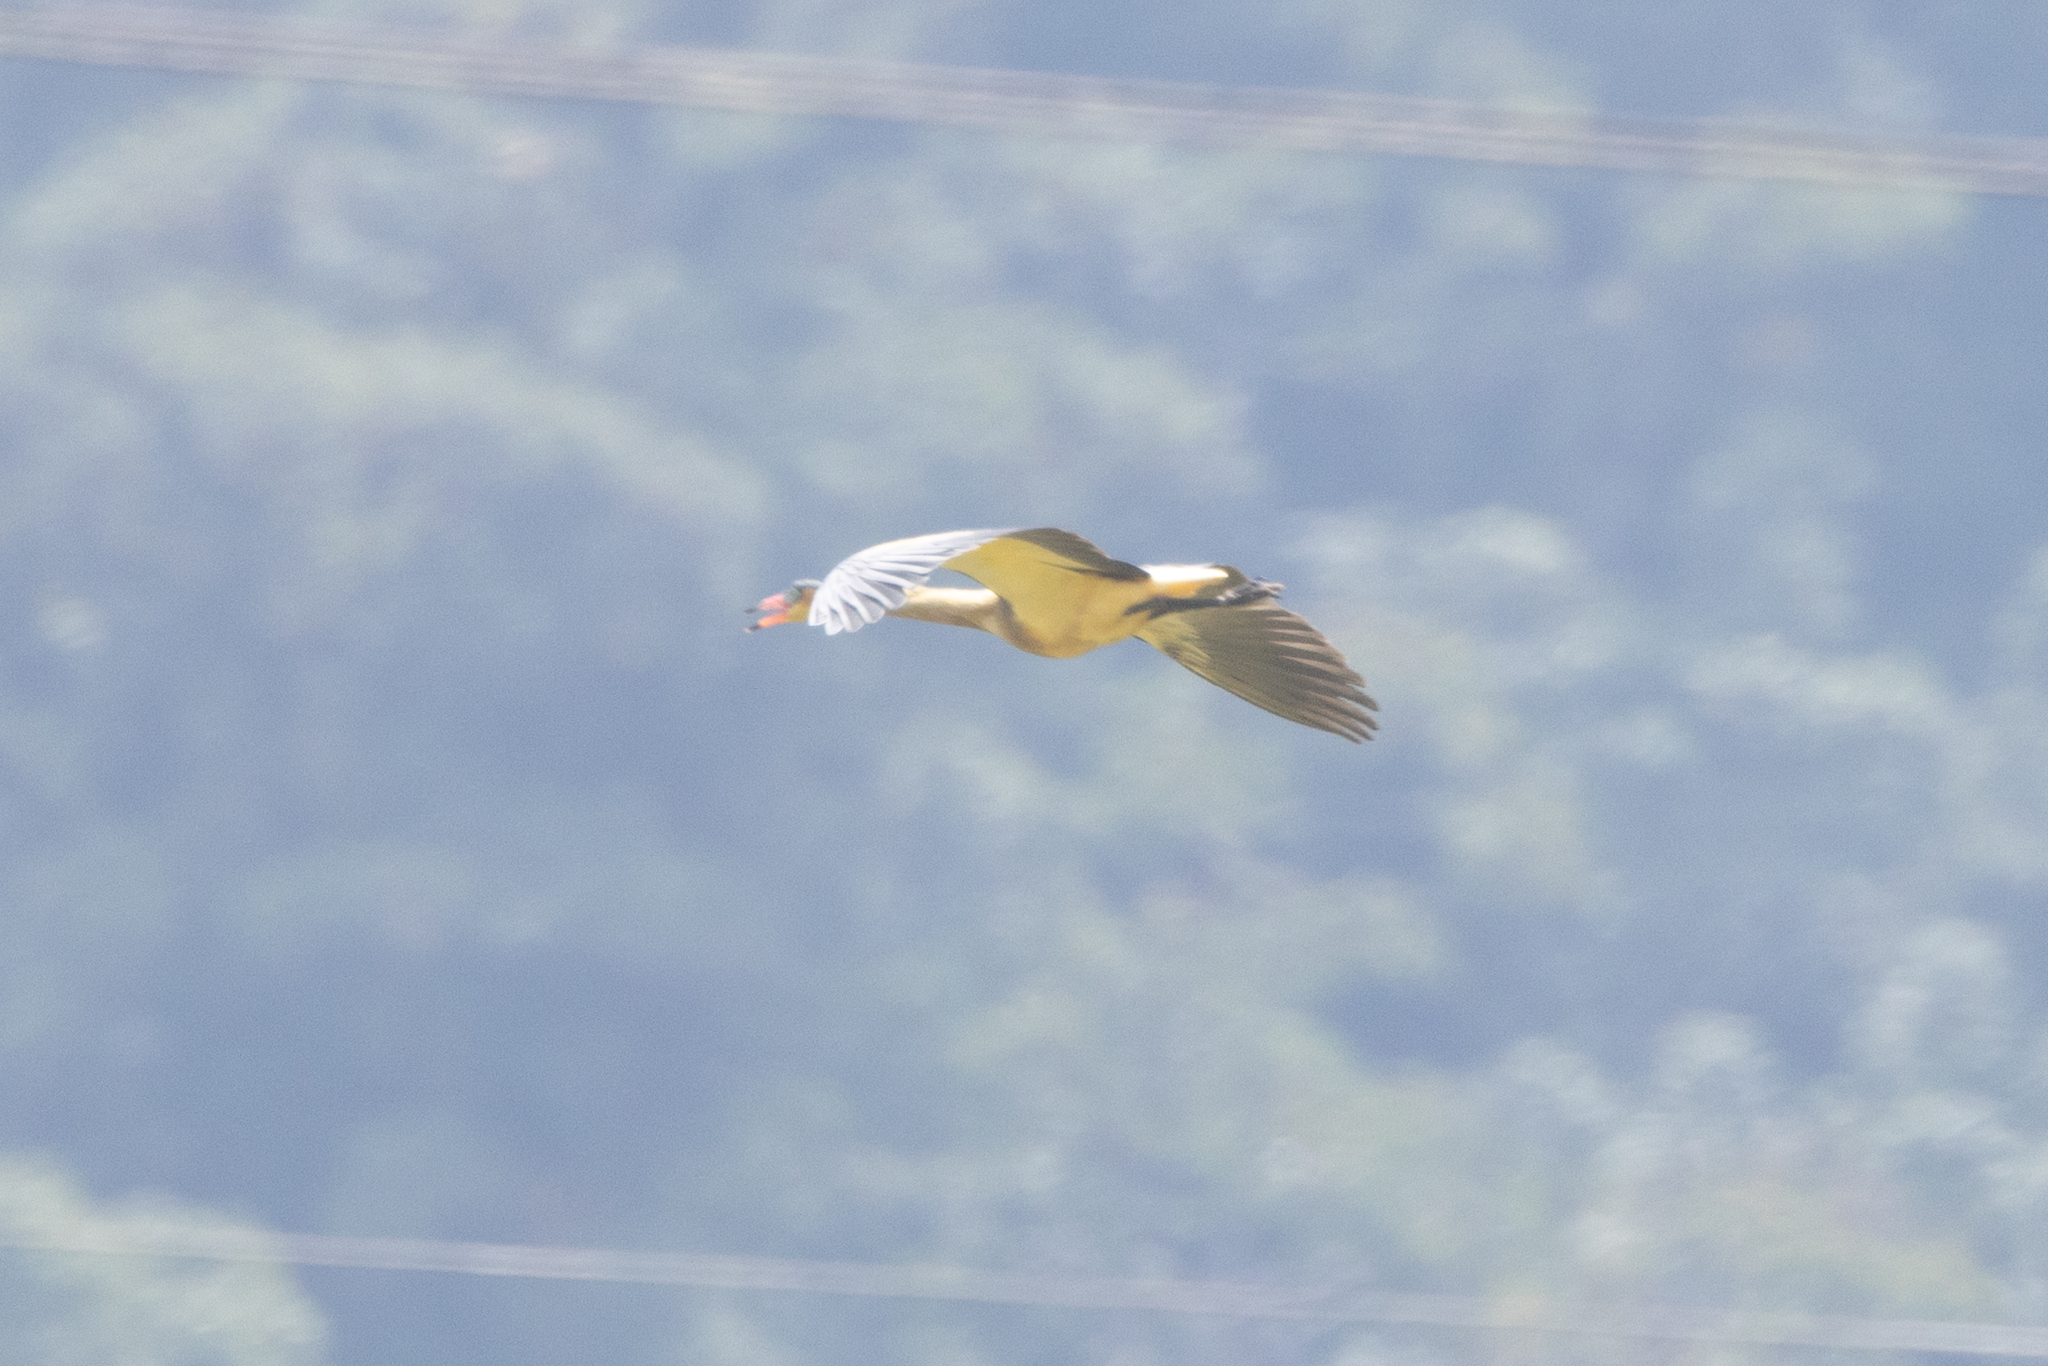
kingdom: Animalia
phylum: Chordata
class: Aves
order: Pelecaniformes
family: Ardeidae
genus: Syrigma
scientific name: Syrigma sibilatrix
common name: Whistling heron
